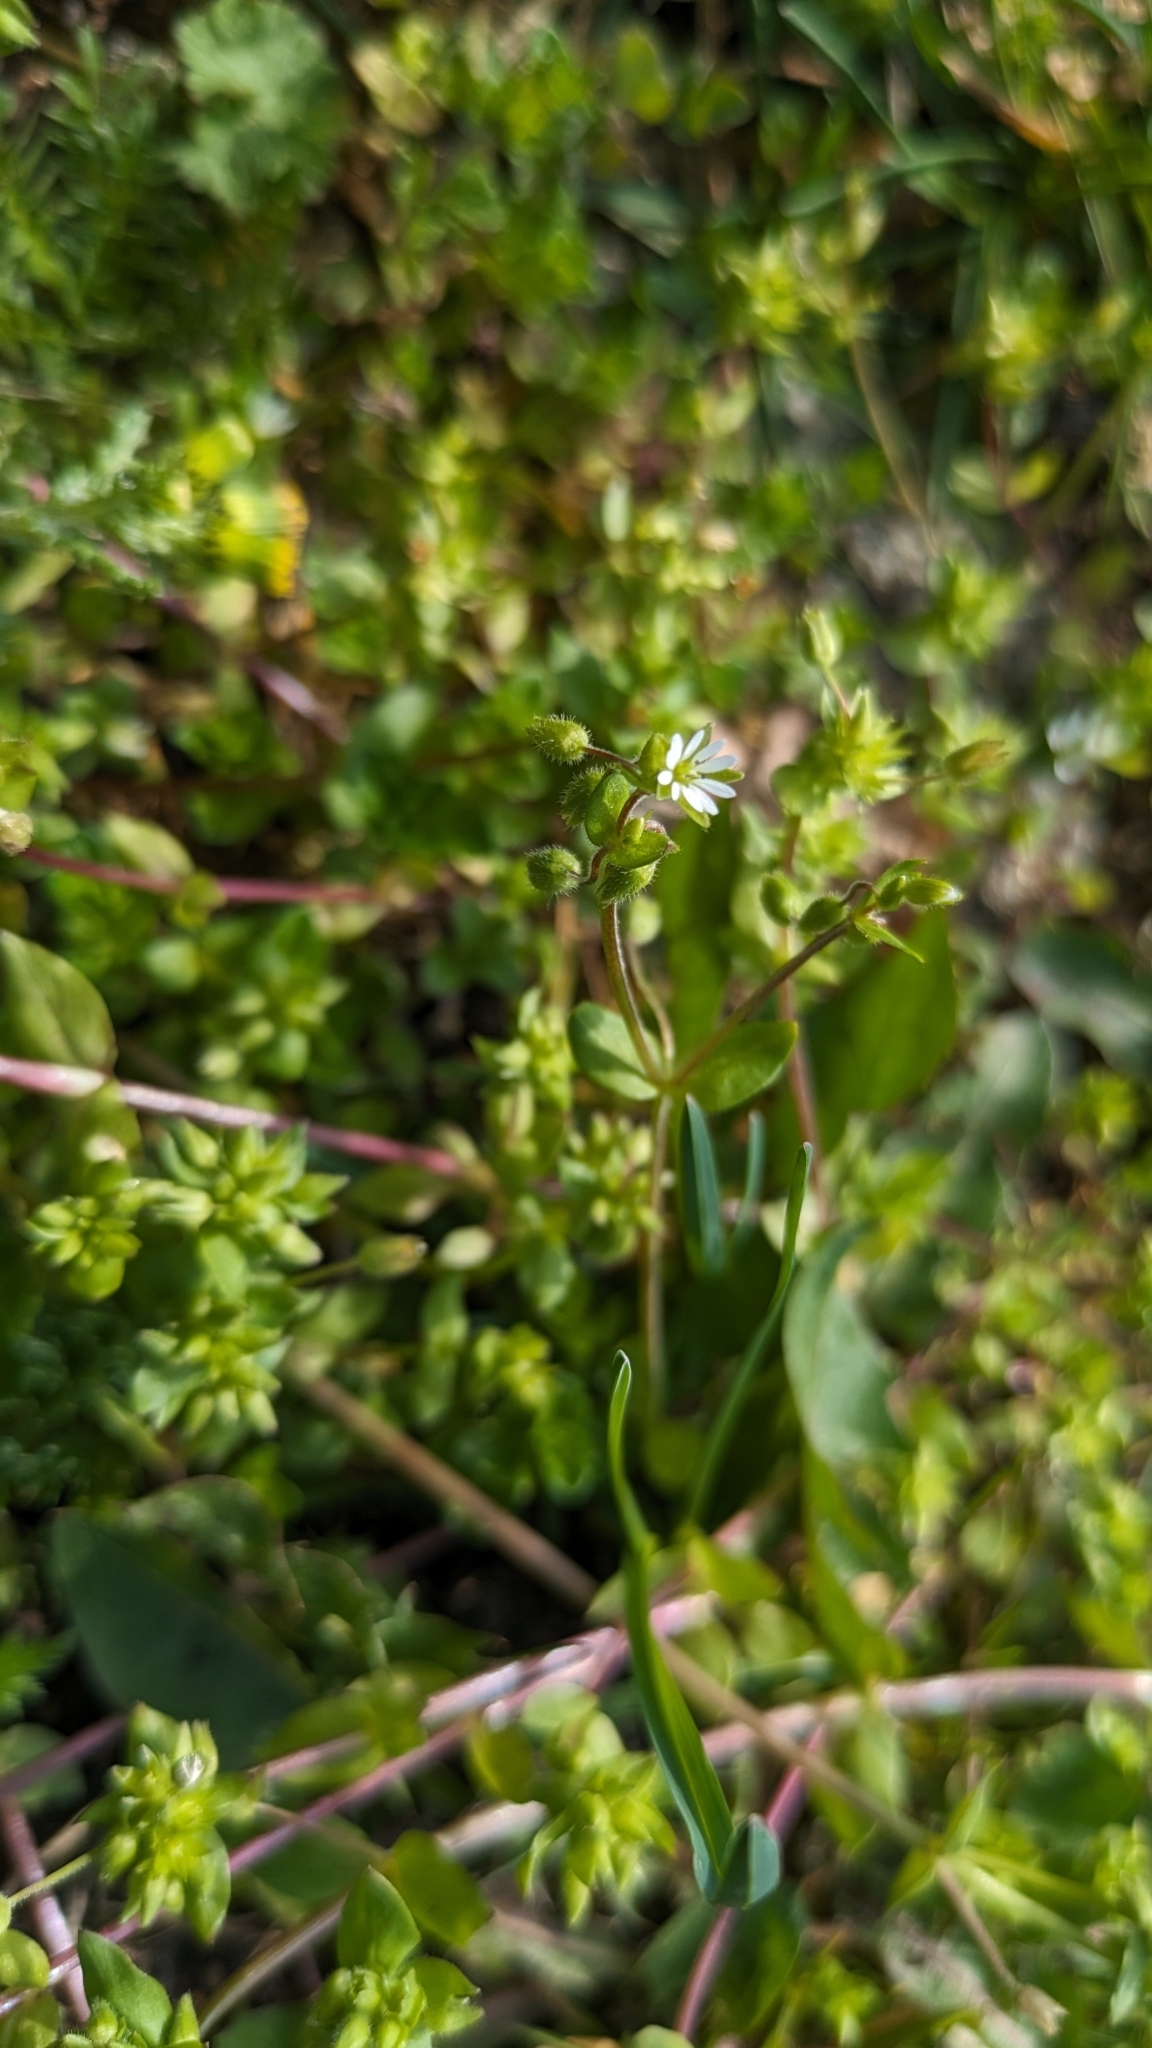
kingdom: Plantae
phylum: Tracheophyta
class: Magnoliopsida
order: Caryophyllales
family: Caryophyllaceae
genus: Stellaria
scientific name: Stellaria media
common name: Common chickweed
